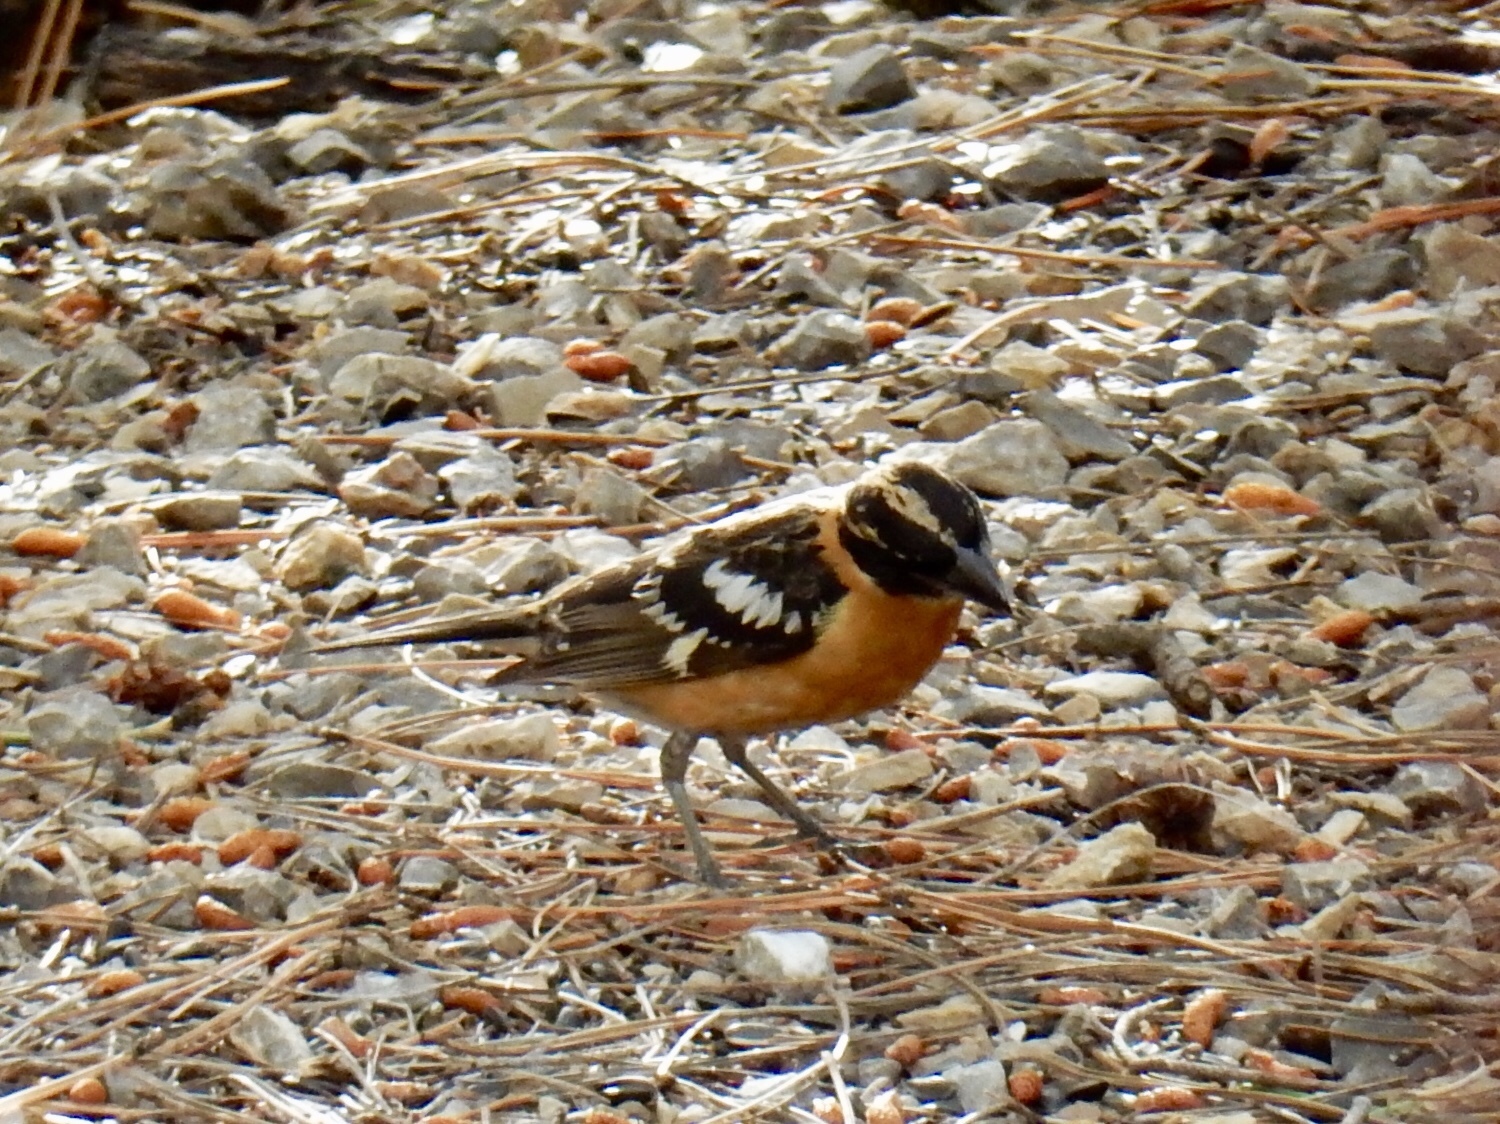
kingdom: Animalia
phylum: Chordata
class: Aves
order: Passeriformes
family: Cardinalidae
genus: Pheucticus
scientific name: Pheucticus melanocephalus
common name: Black-headed grosbeak
